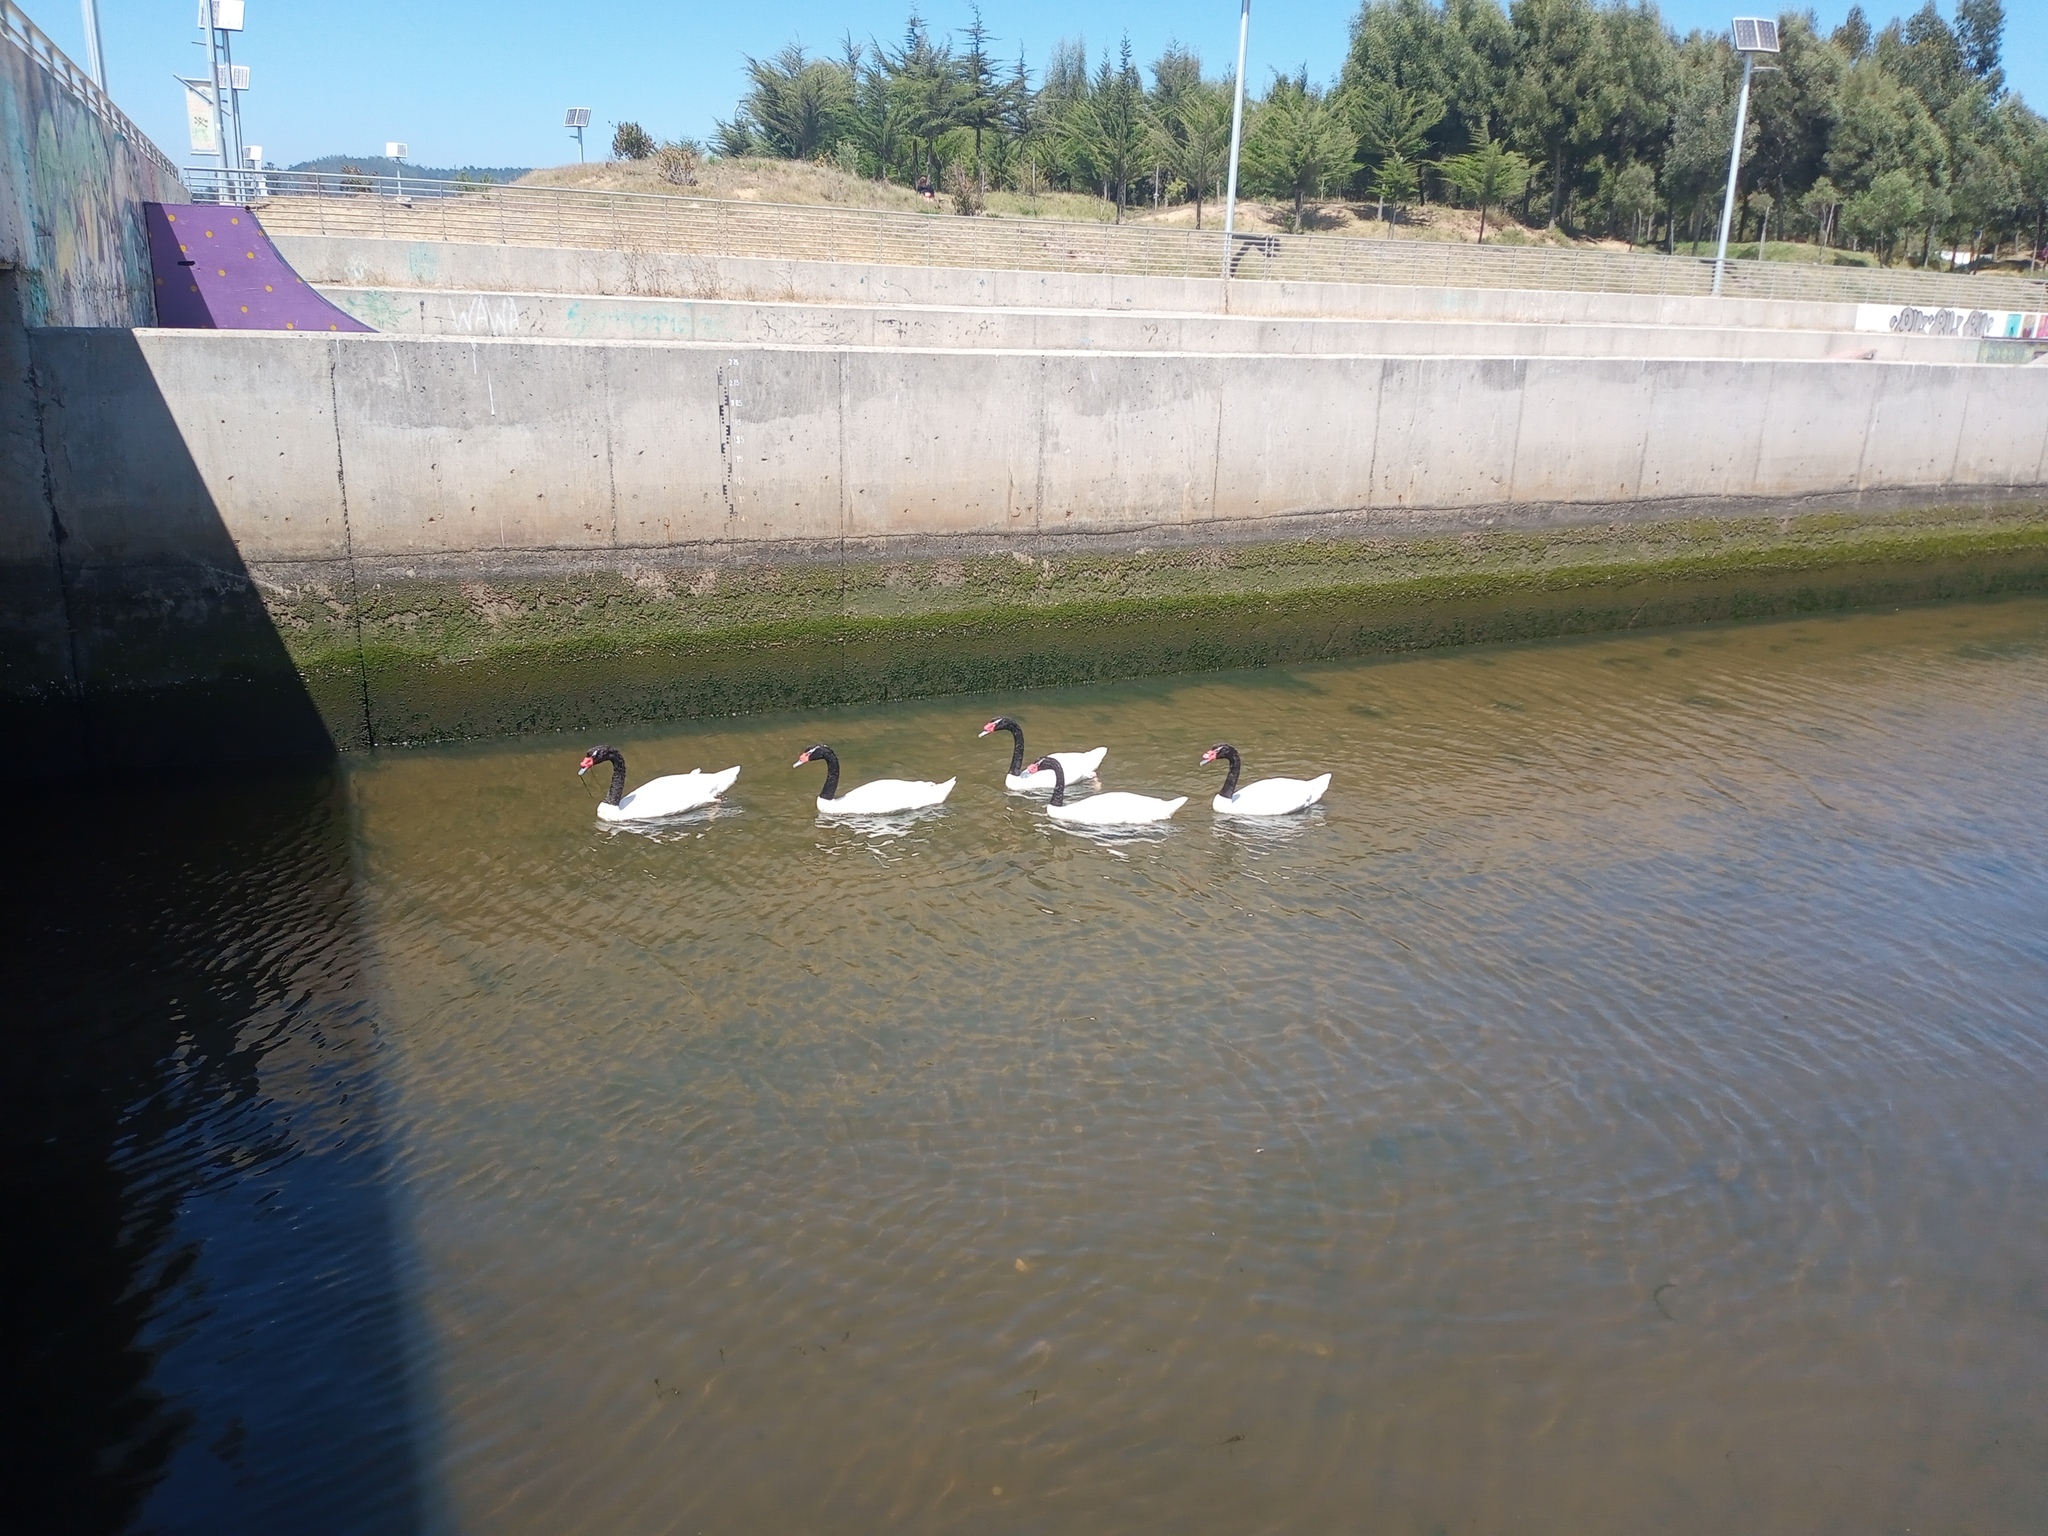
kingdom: Animalia
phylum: Chordata
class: Aves
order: Anseriformes
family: Anatidae
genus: Cygnus
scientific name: Cygnus melancoryphus
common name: Black-necked swan
